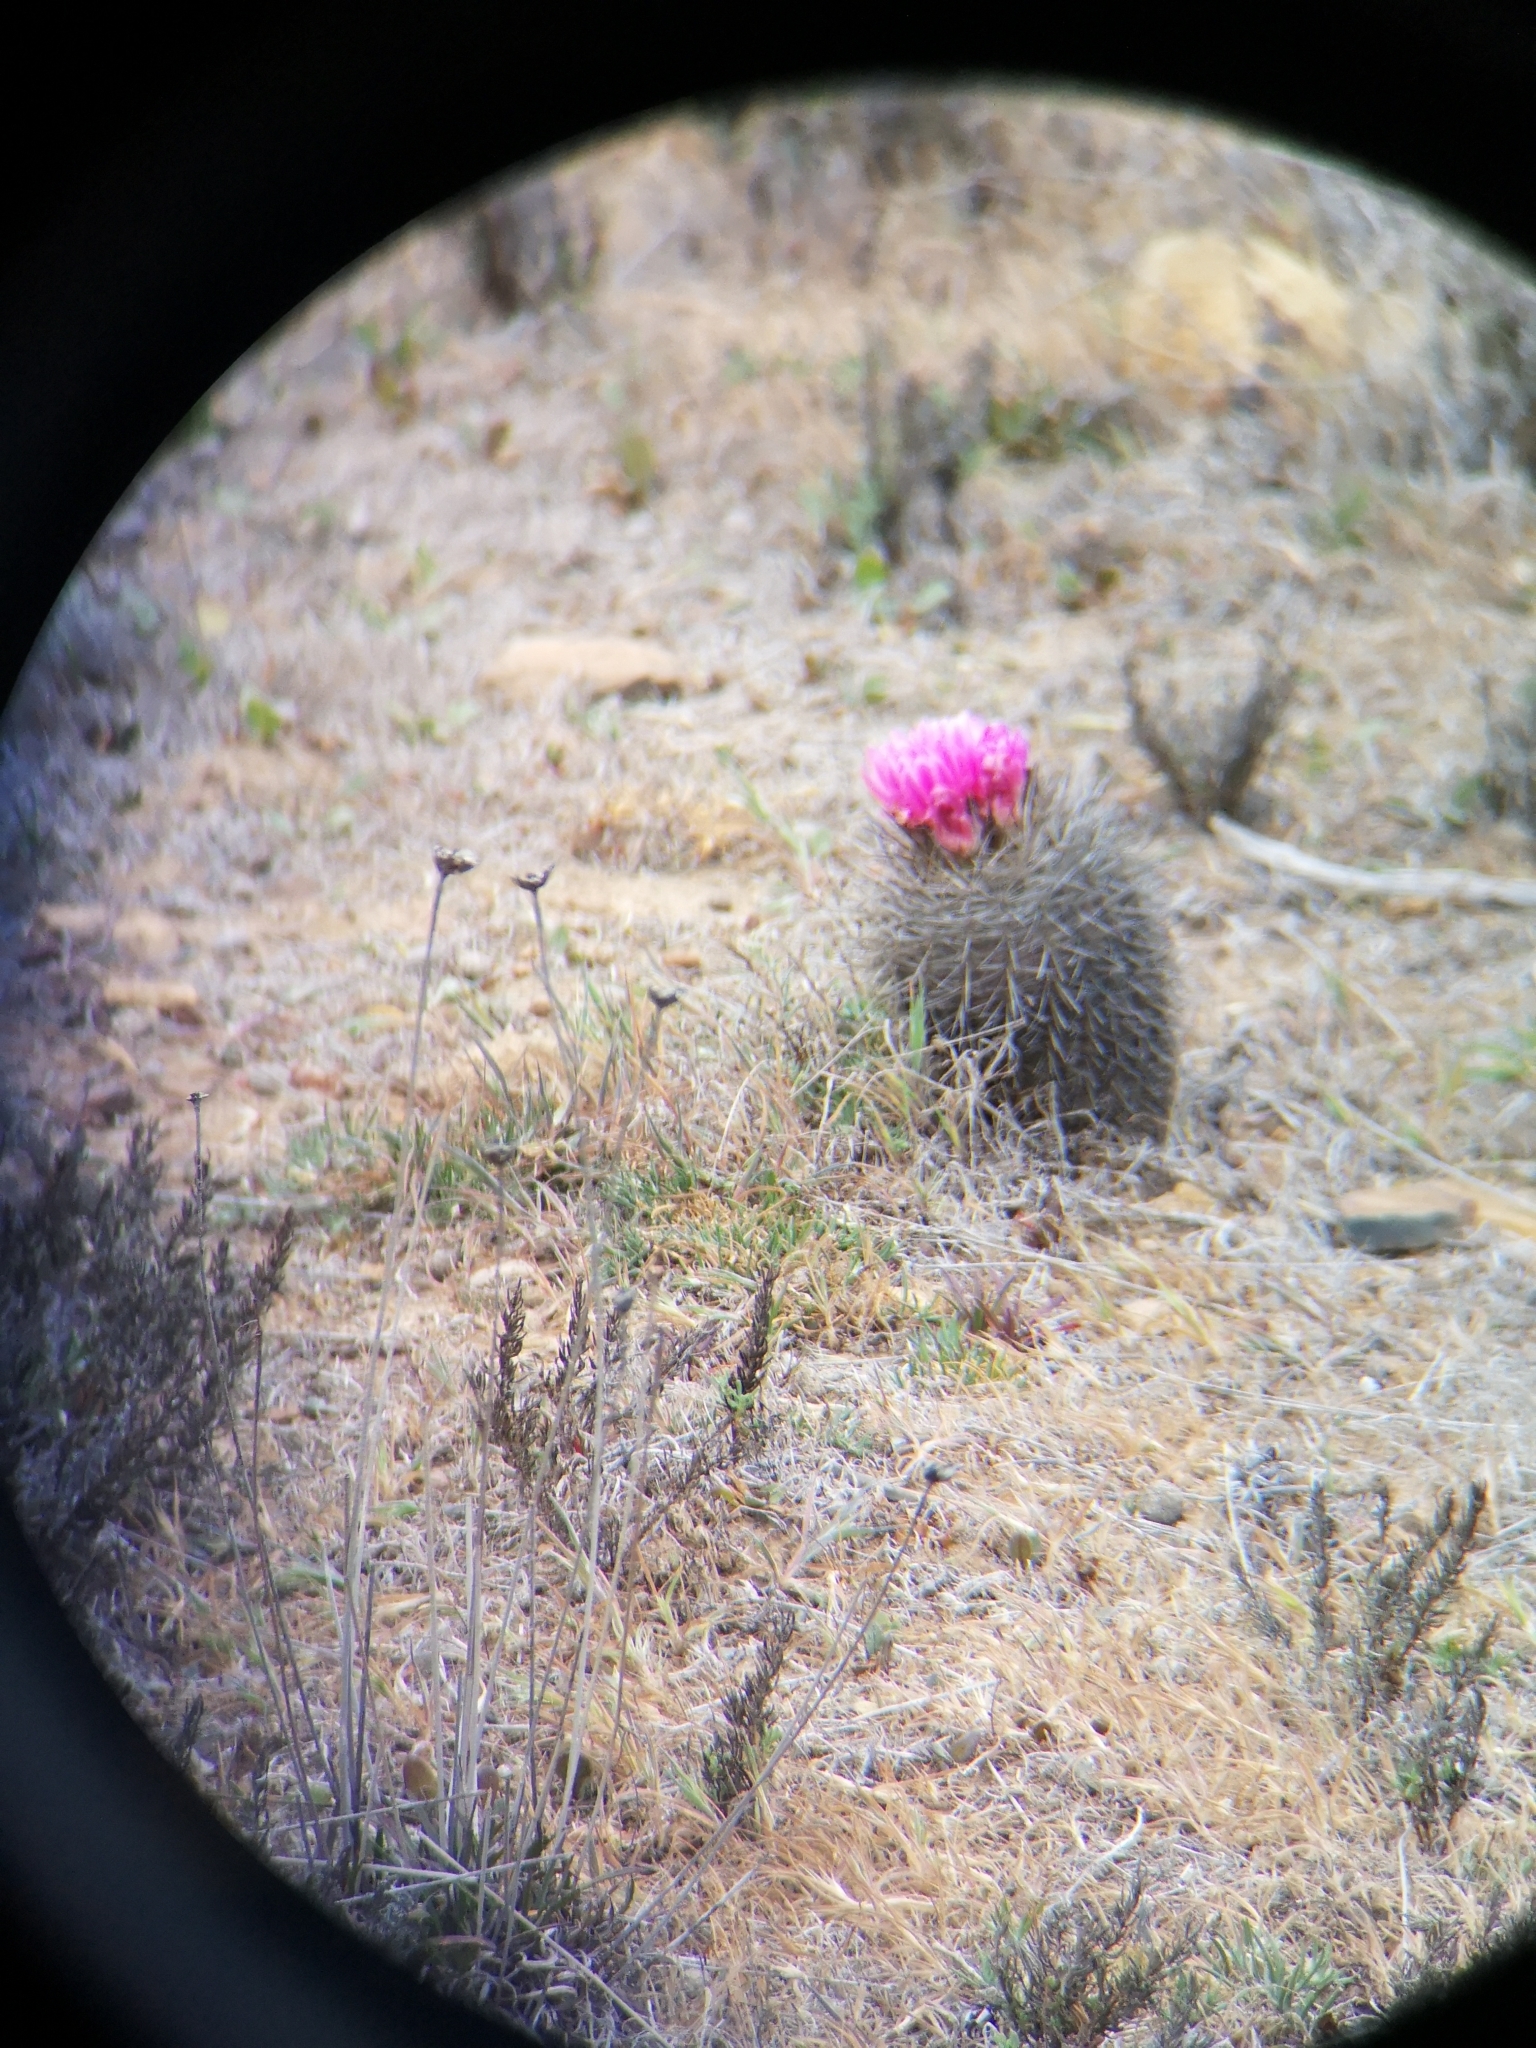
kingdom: Plantae
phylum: Tracheophyta
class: Magnoliopsida
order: Caryophyllales
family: Cactaceae
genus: Eriosyce
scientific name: Eriosyce chilensis
